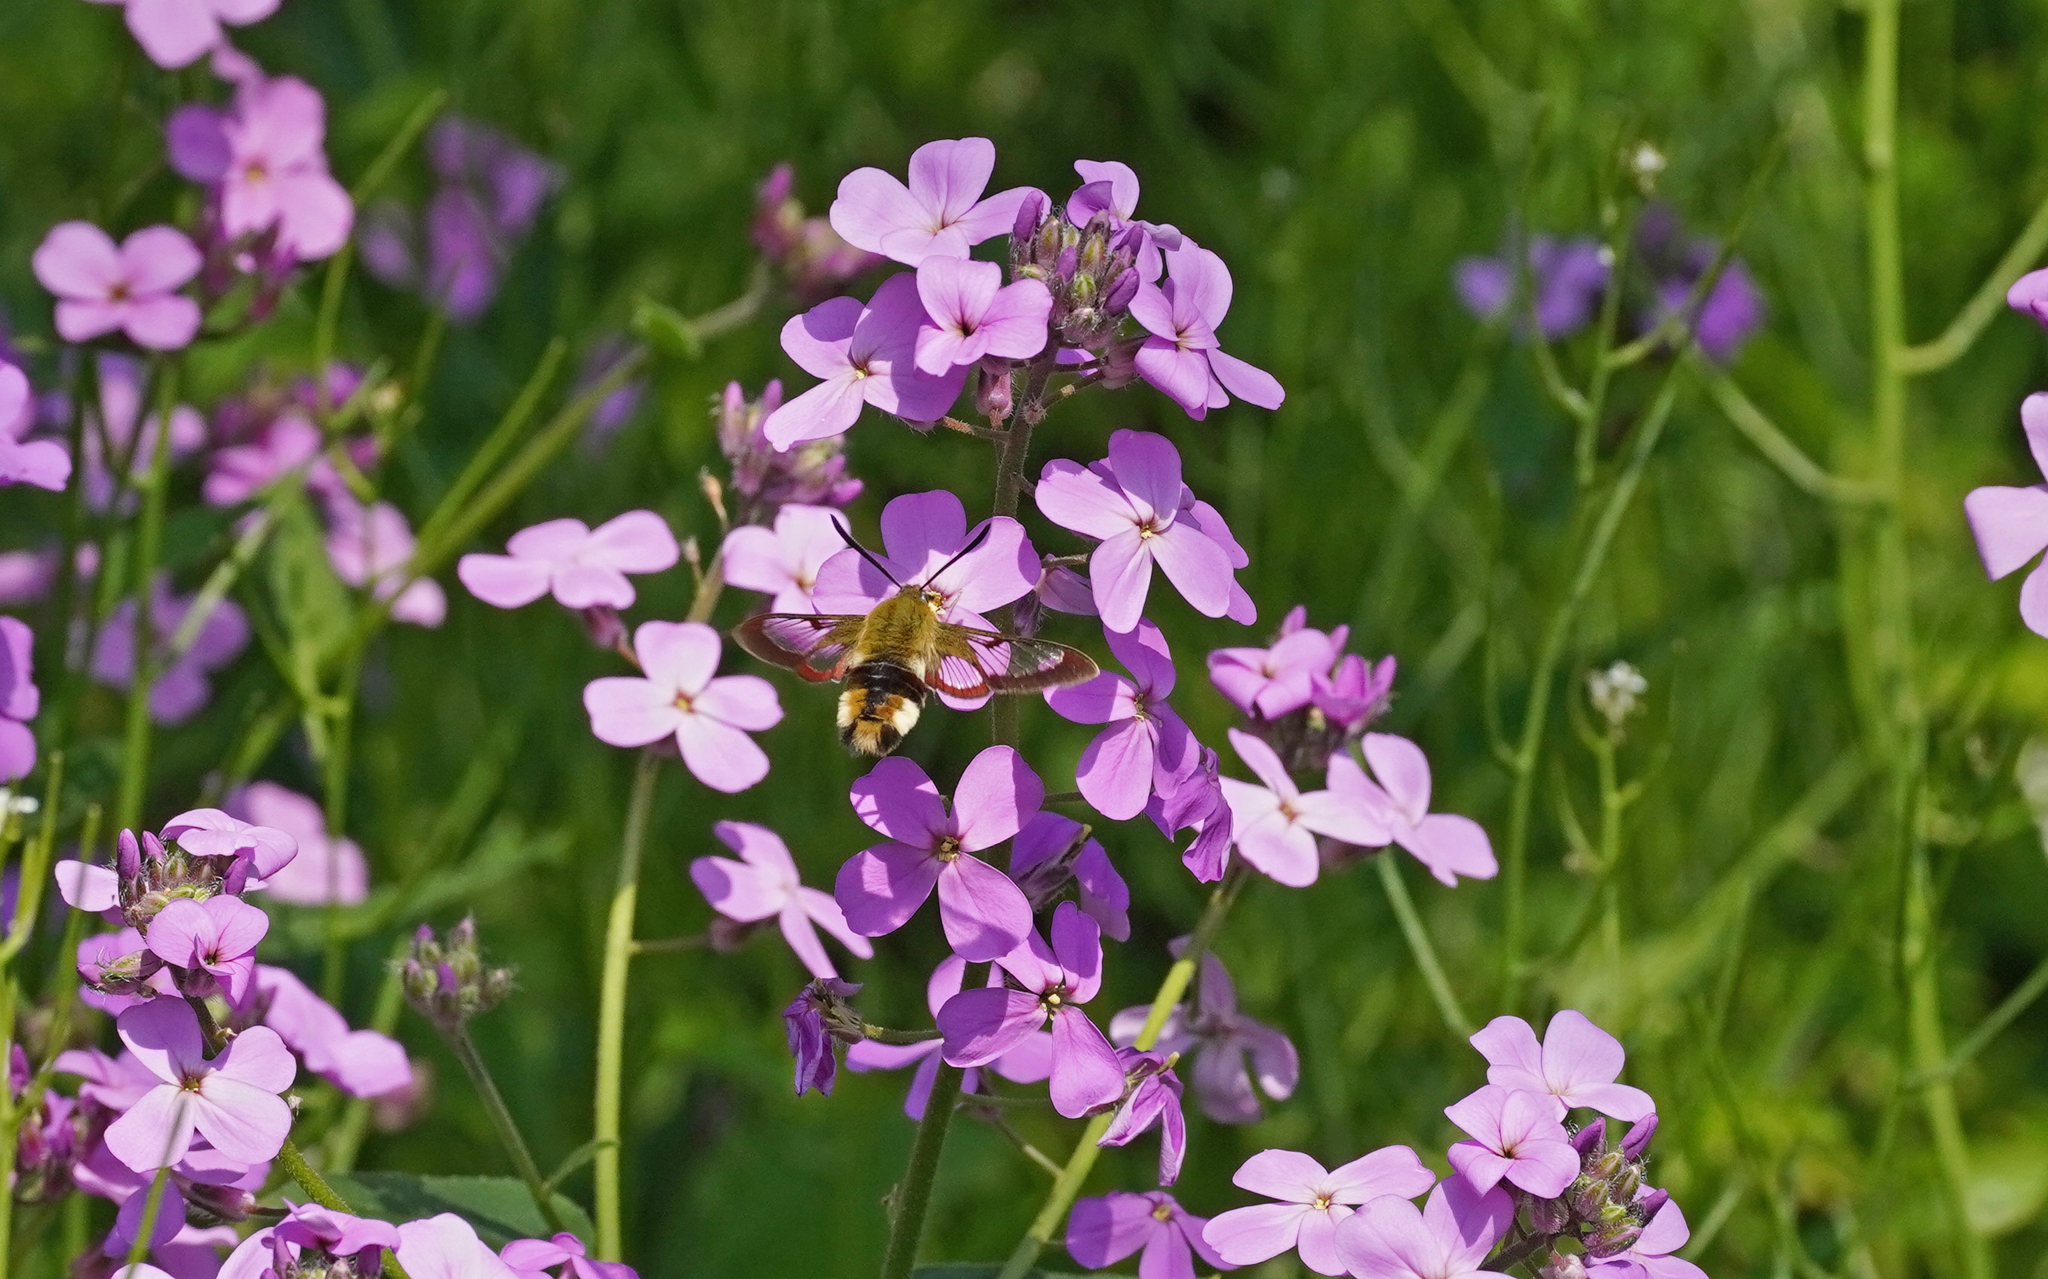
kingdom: Animalia
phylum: Arthropoda
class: Insecta
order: Lepidoptera
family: Sphingidae
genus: Hemaris
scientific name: Hemaris fuciformis
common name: Broad-bordered bee hawk-moth
